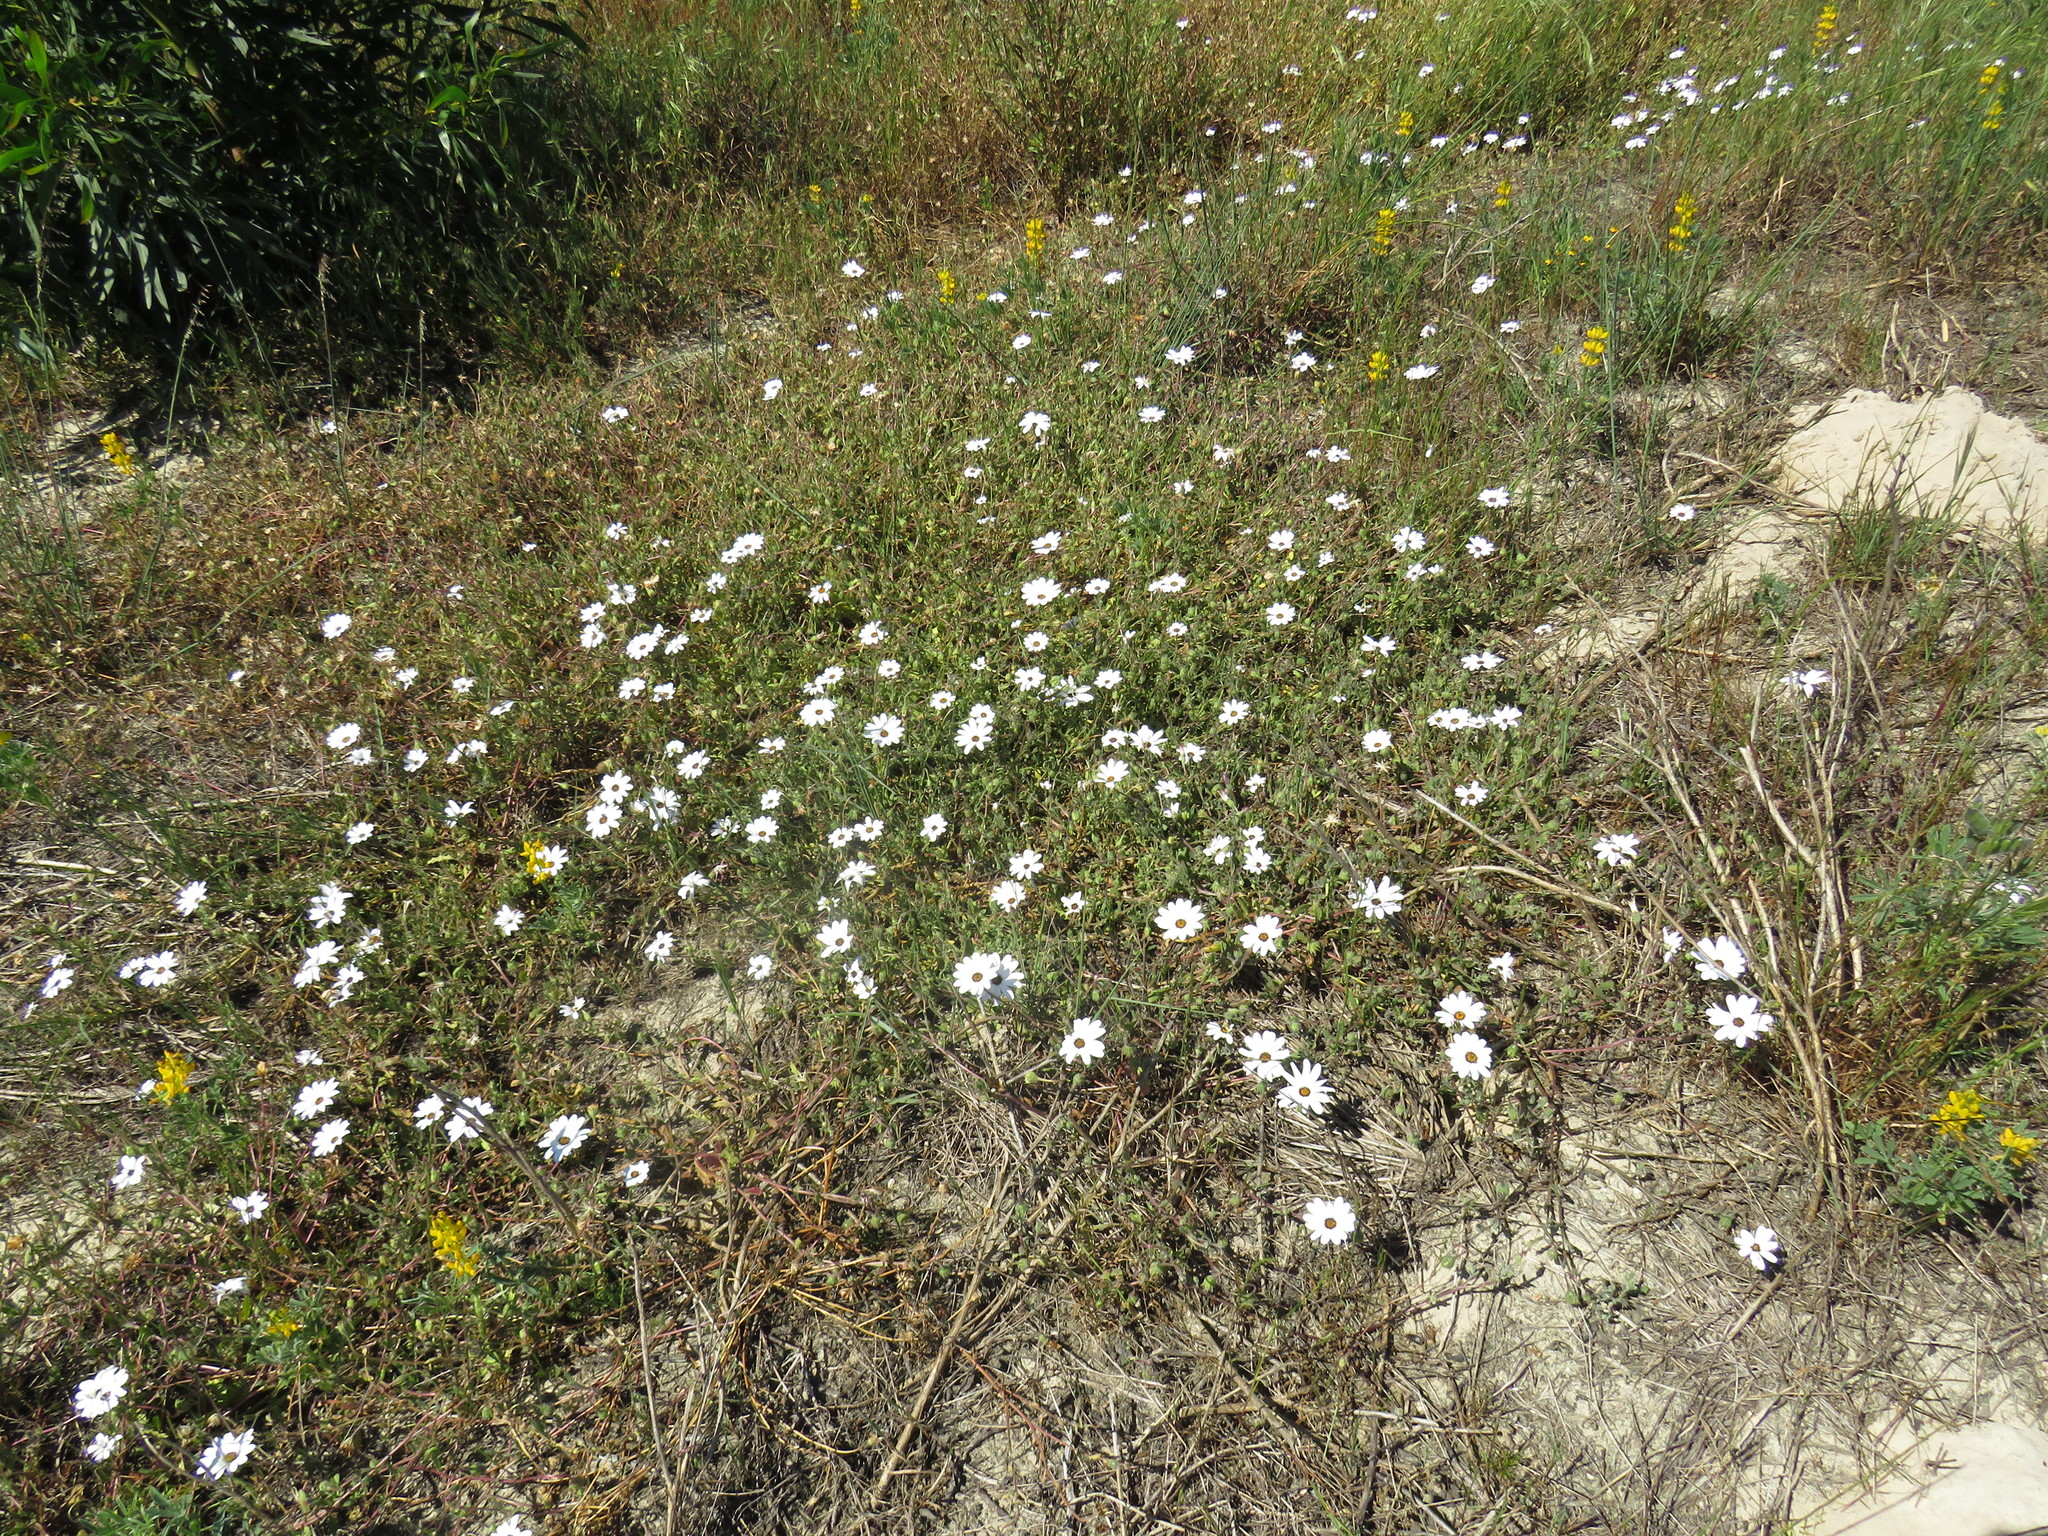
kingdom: Plantae
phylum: Tracheophyta
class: Magnoliopsida
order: Asterales
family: Asteraceae
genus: Dimorphotheca
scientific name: Dimorphotheca pluvialis
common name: Weather prophet
